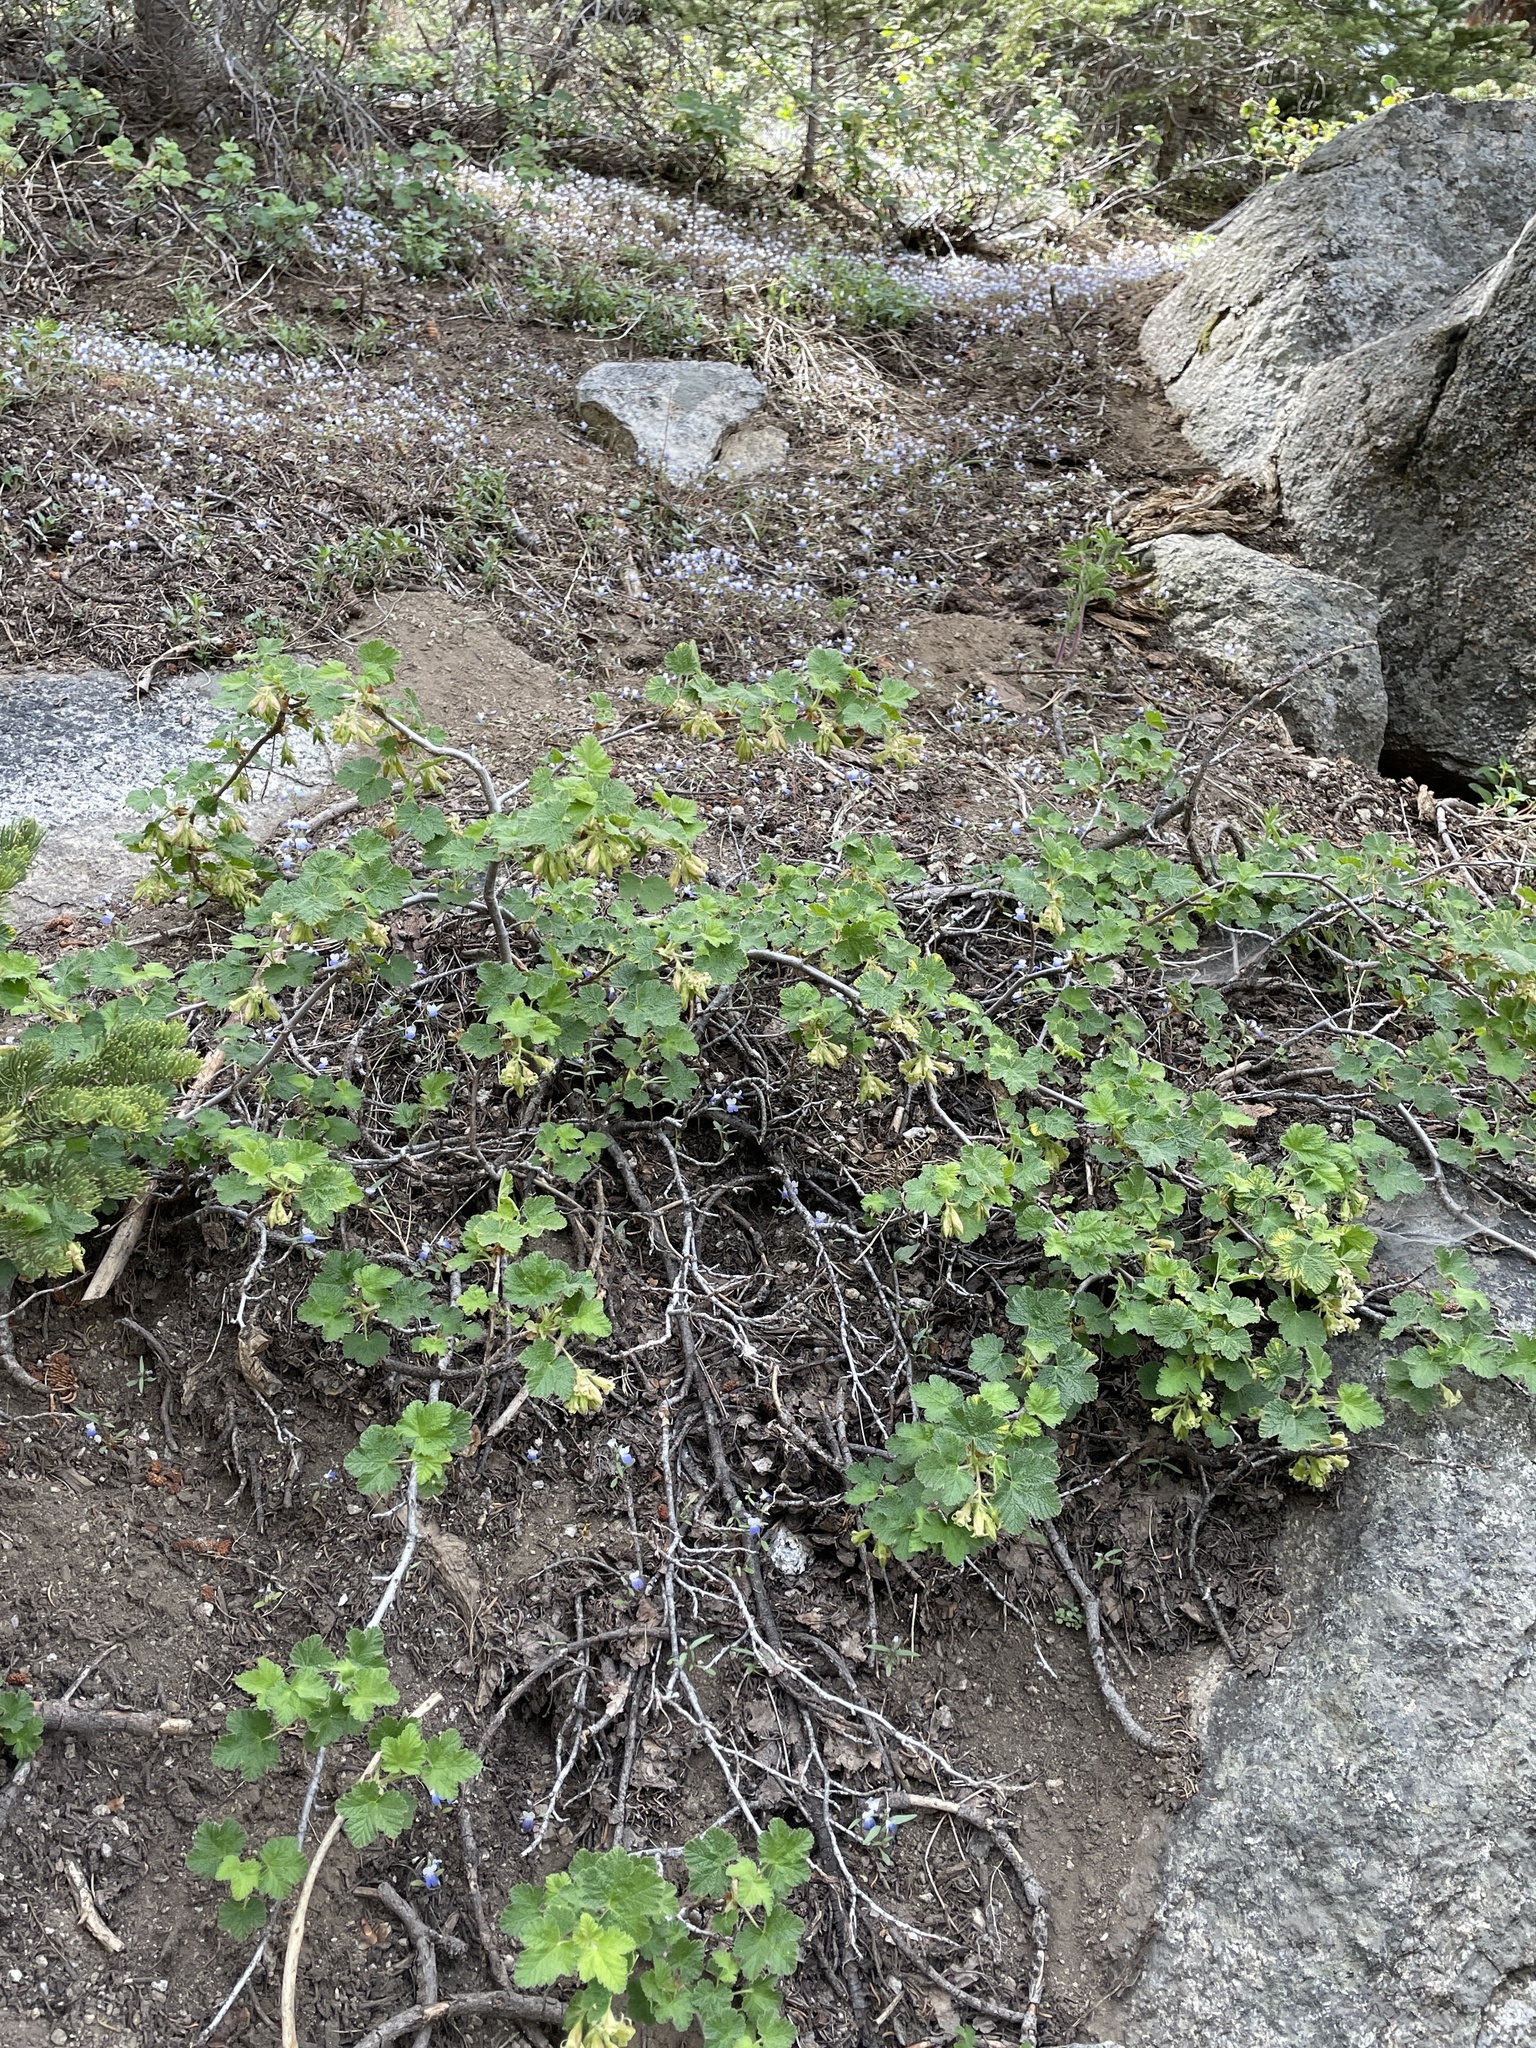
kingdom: Plantae
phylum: Tracheophyta
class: Magnoliopsida
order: Saxifragales
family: Grossulariaceae
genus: Ribes
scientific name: Ribes viscosissimum
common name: Sticky currant
